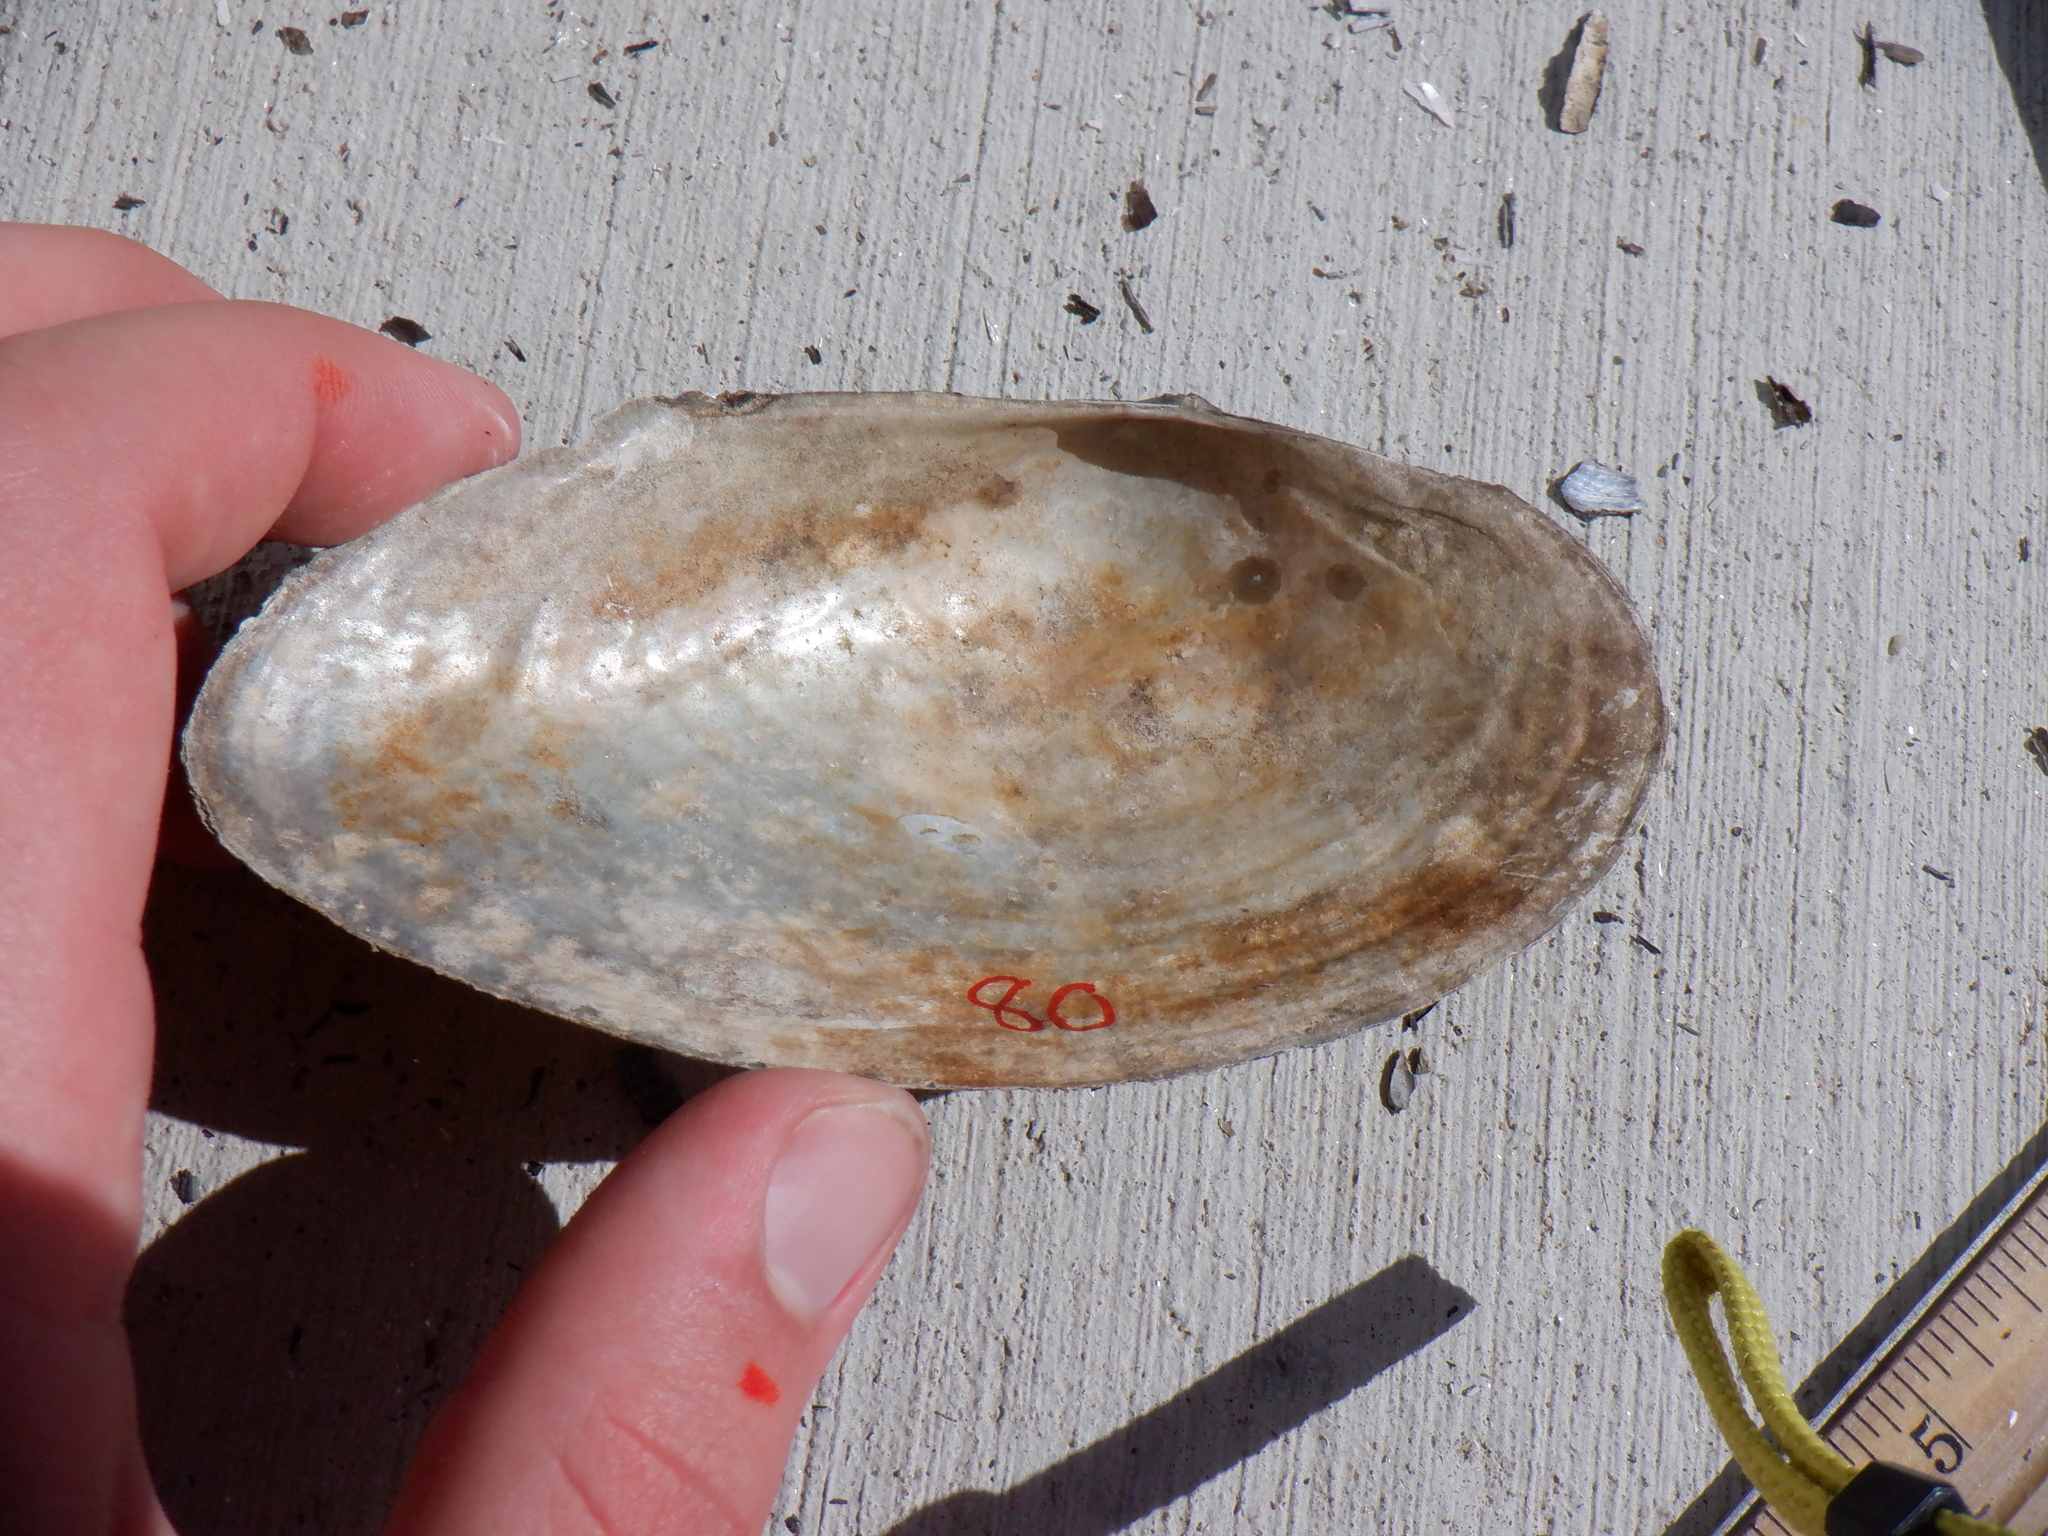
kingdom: Animalia
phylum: Mollusca
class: Bivalvia
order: Unionida
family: Unionidae
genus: Pyganodon
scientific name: Pyganodon grandis
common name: Giant floater
